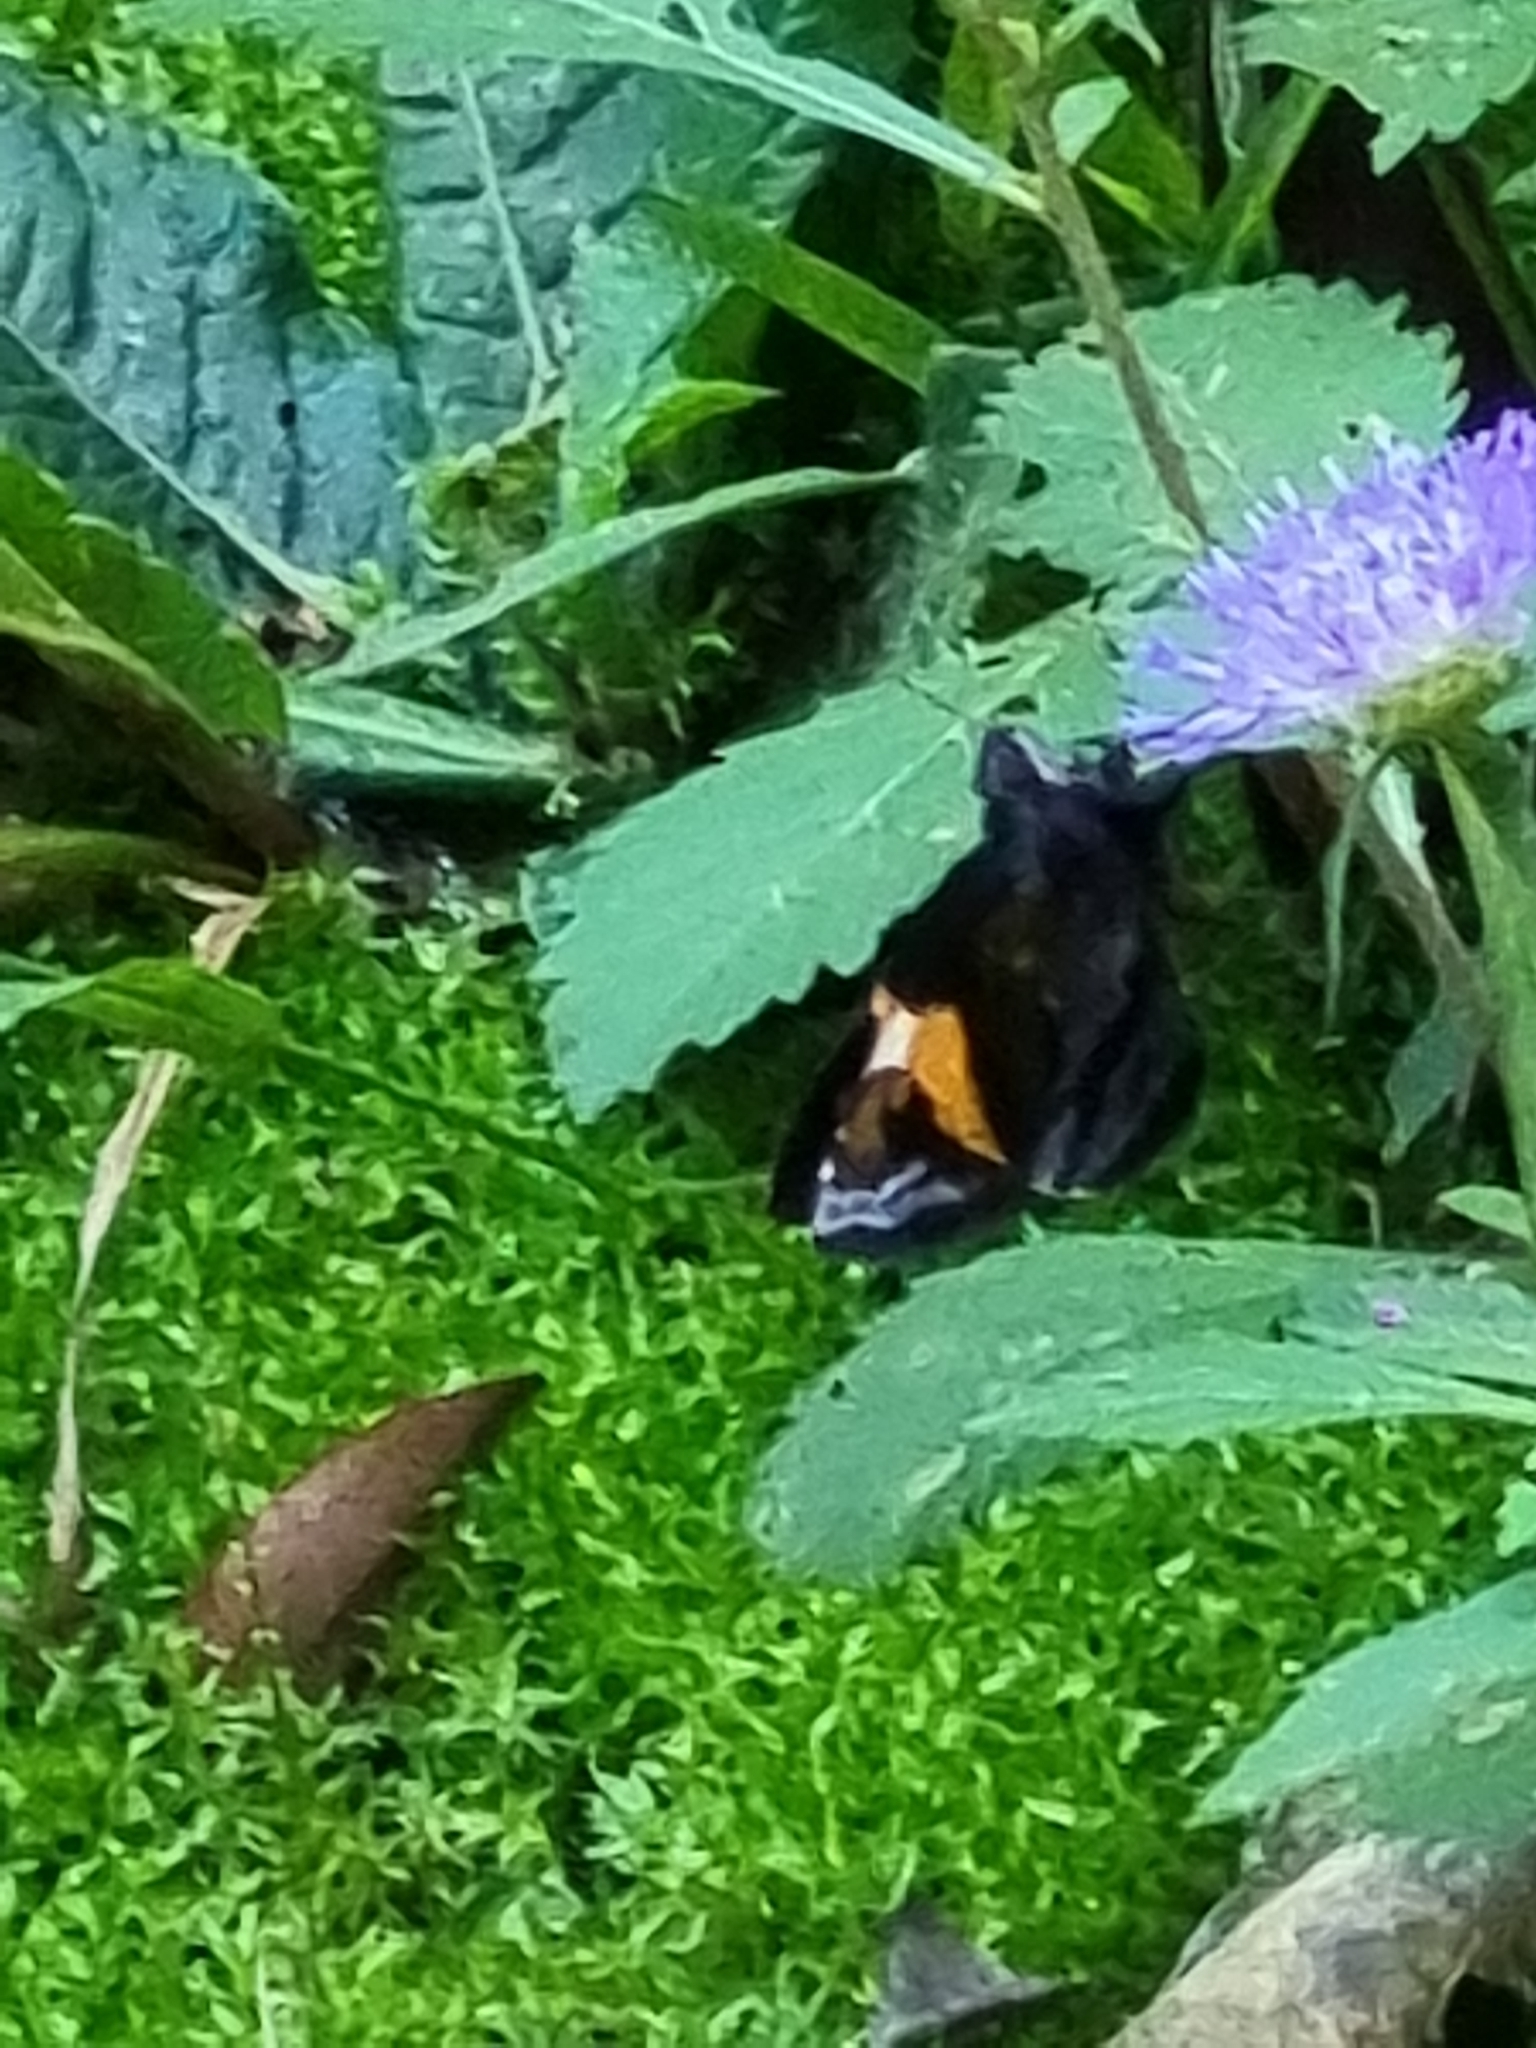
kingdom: Animalia
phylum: Arthropoda
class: Insecta
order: Lepidoptera
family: Hesperiidae
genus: Lychnuchoides
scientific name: Lychnuchoides ozias
